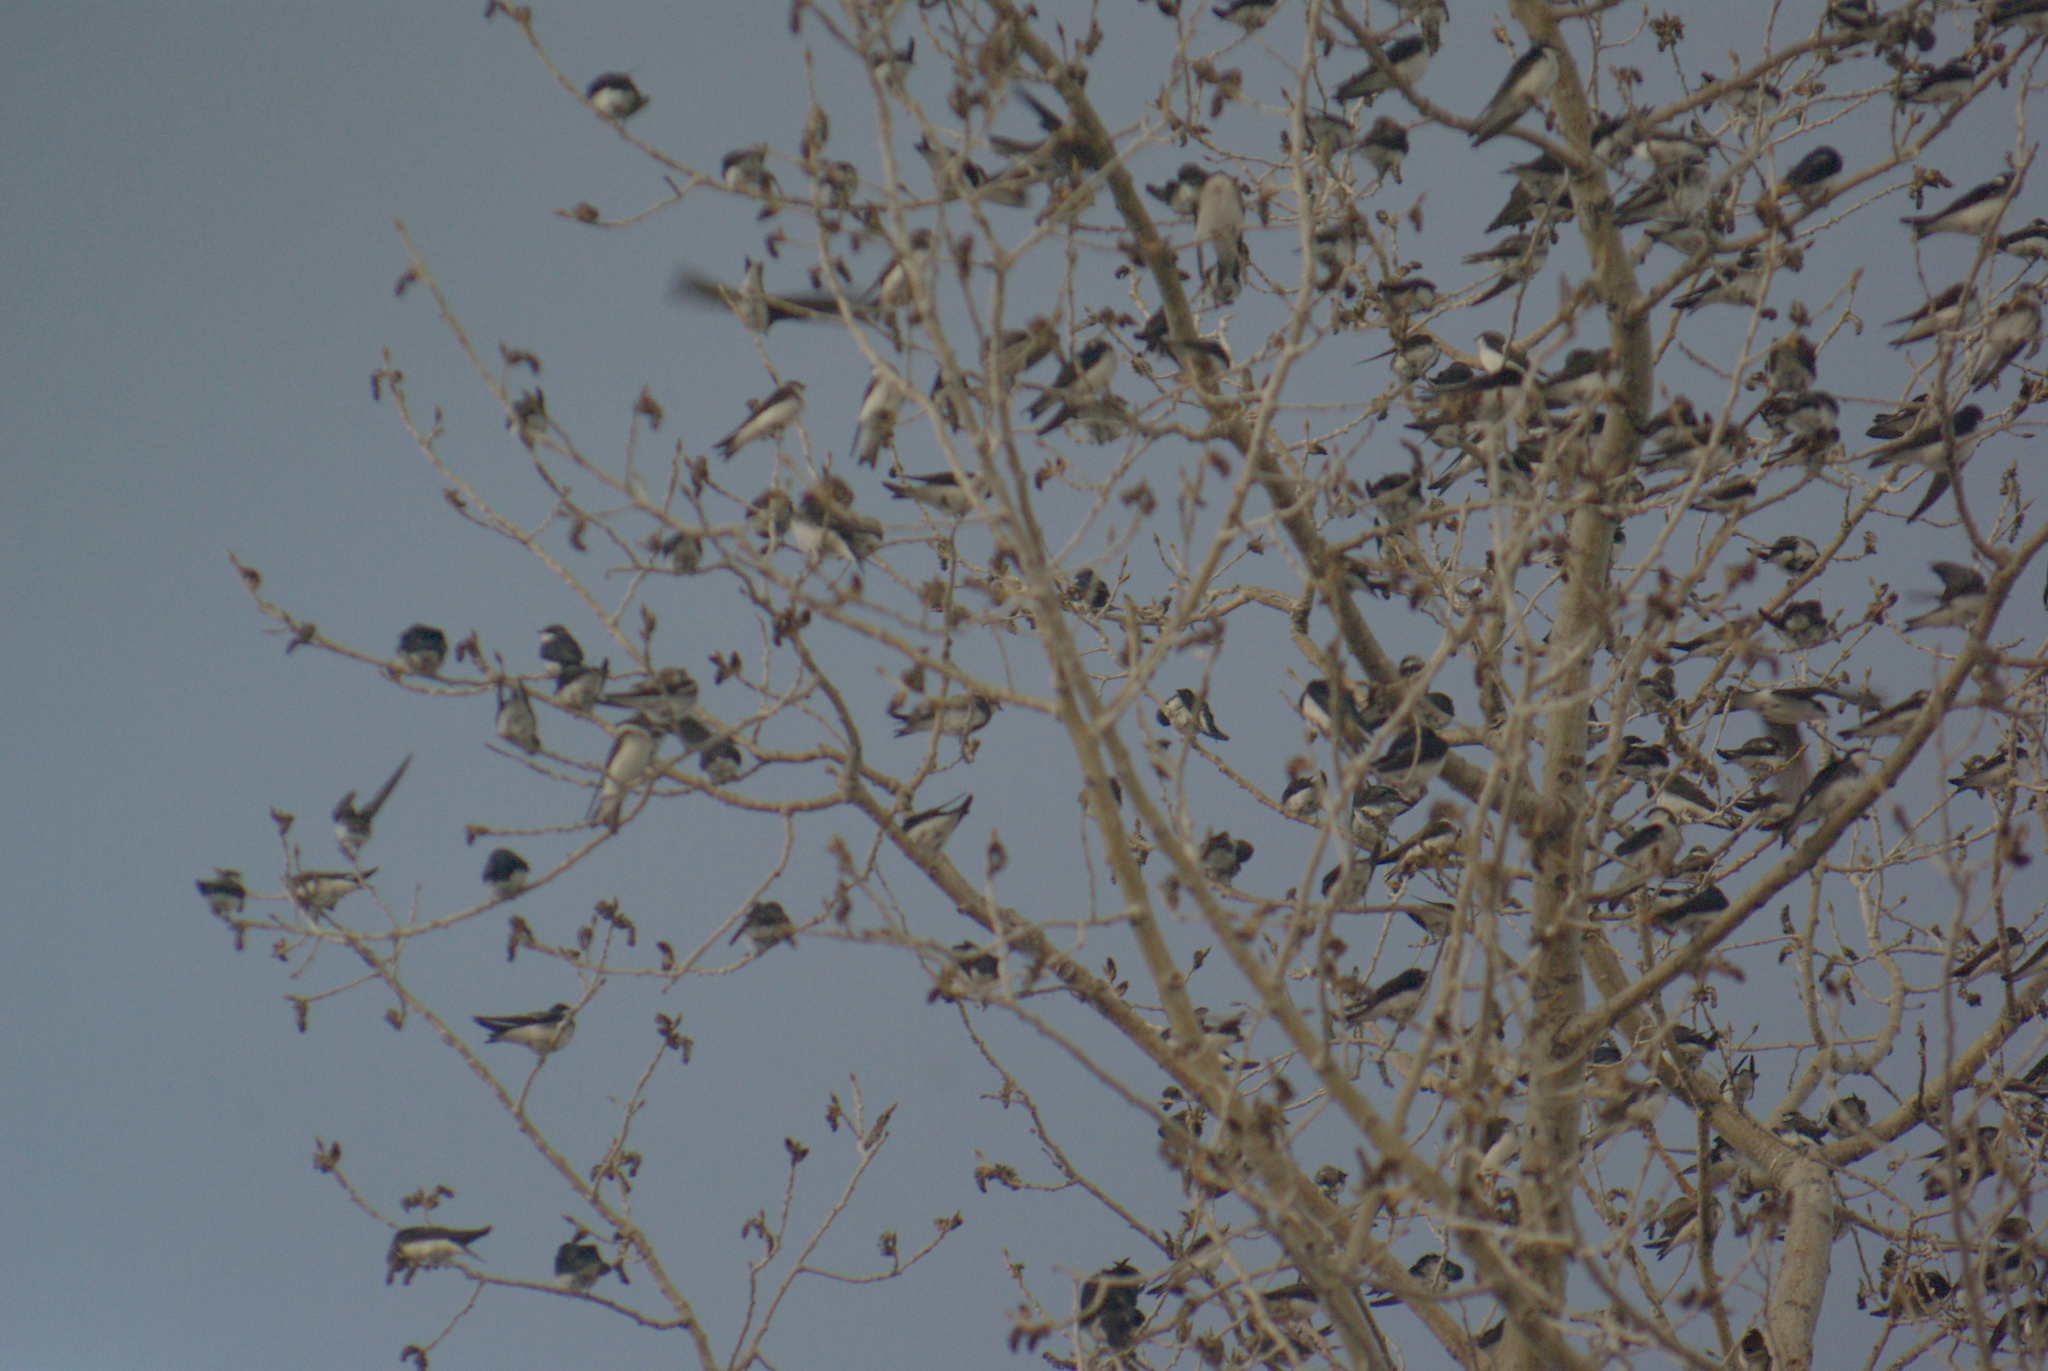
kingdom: Animalia
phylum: Chordata
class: Aves
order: Passeriformes
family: Hirundinidae
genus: Tachycineta
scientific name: Tachycineta bicolor
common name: Tree swallow
